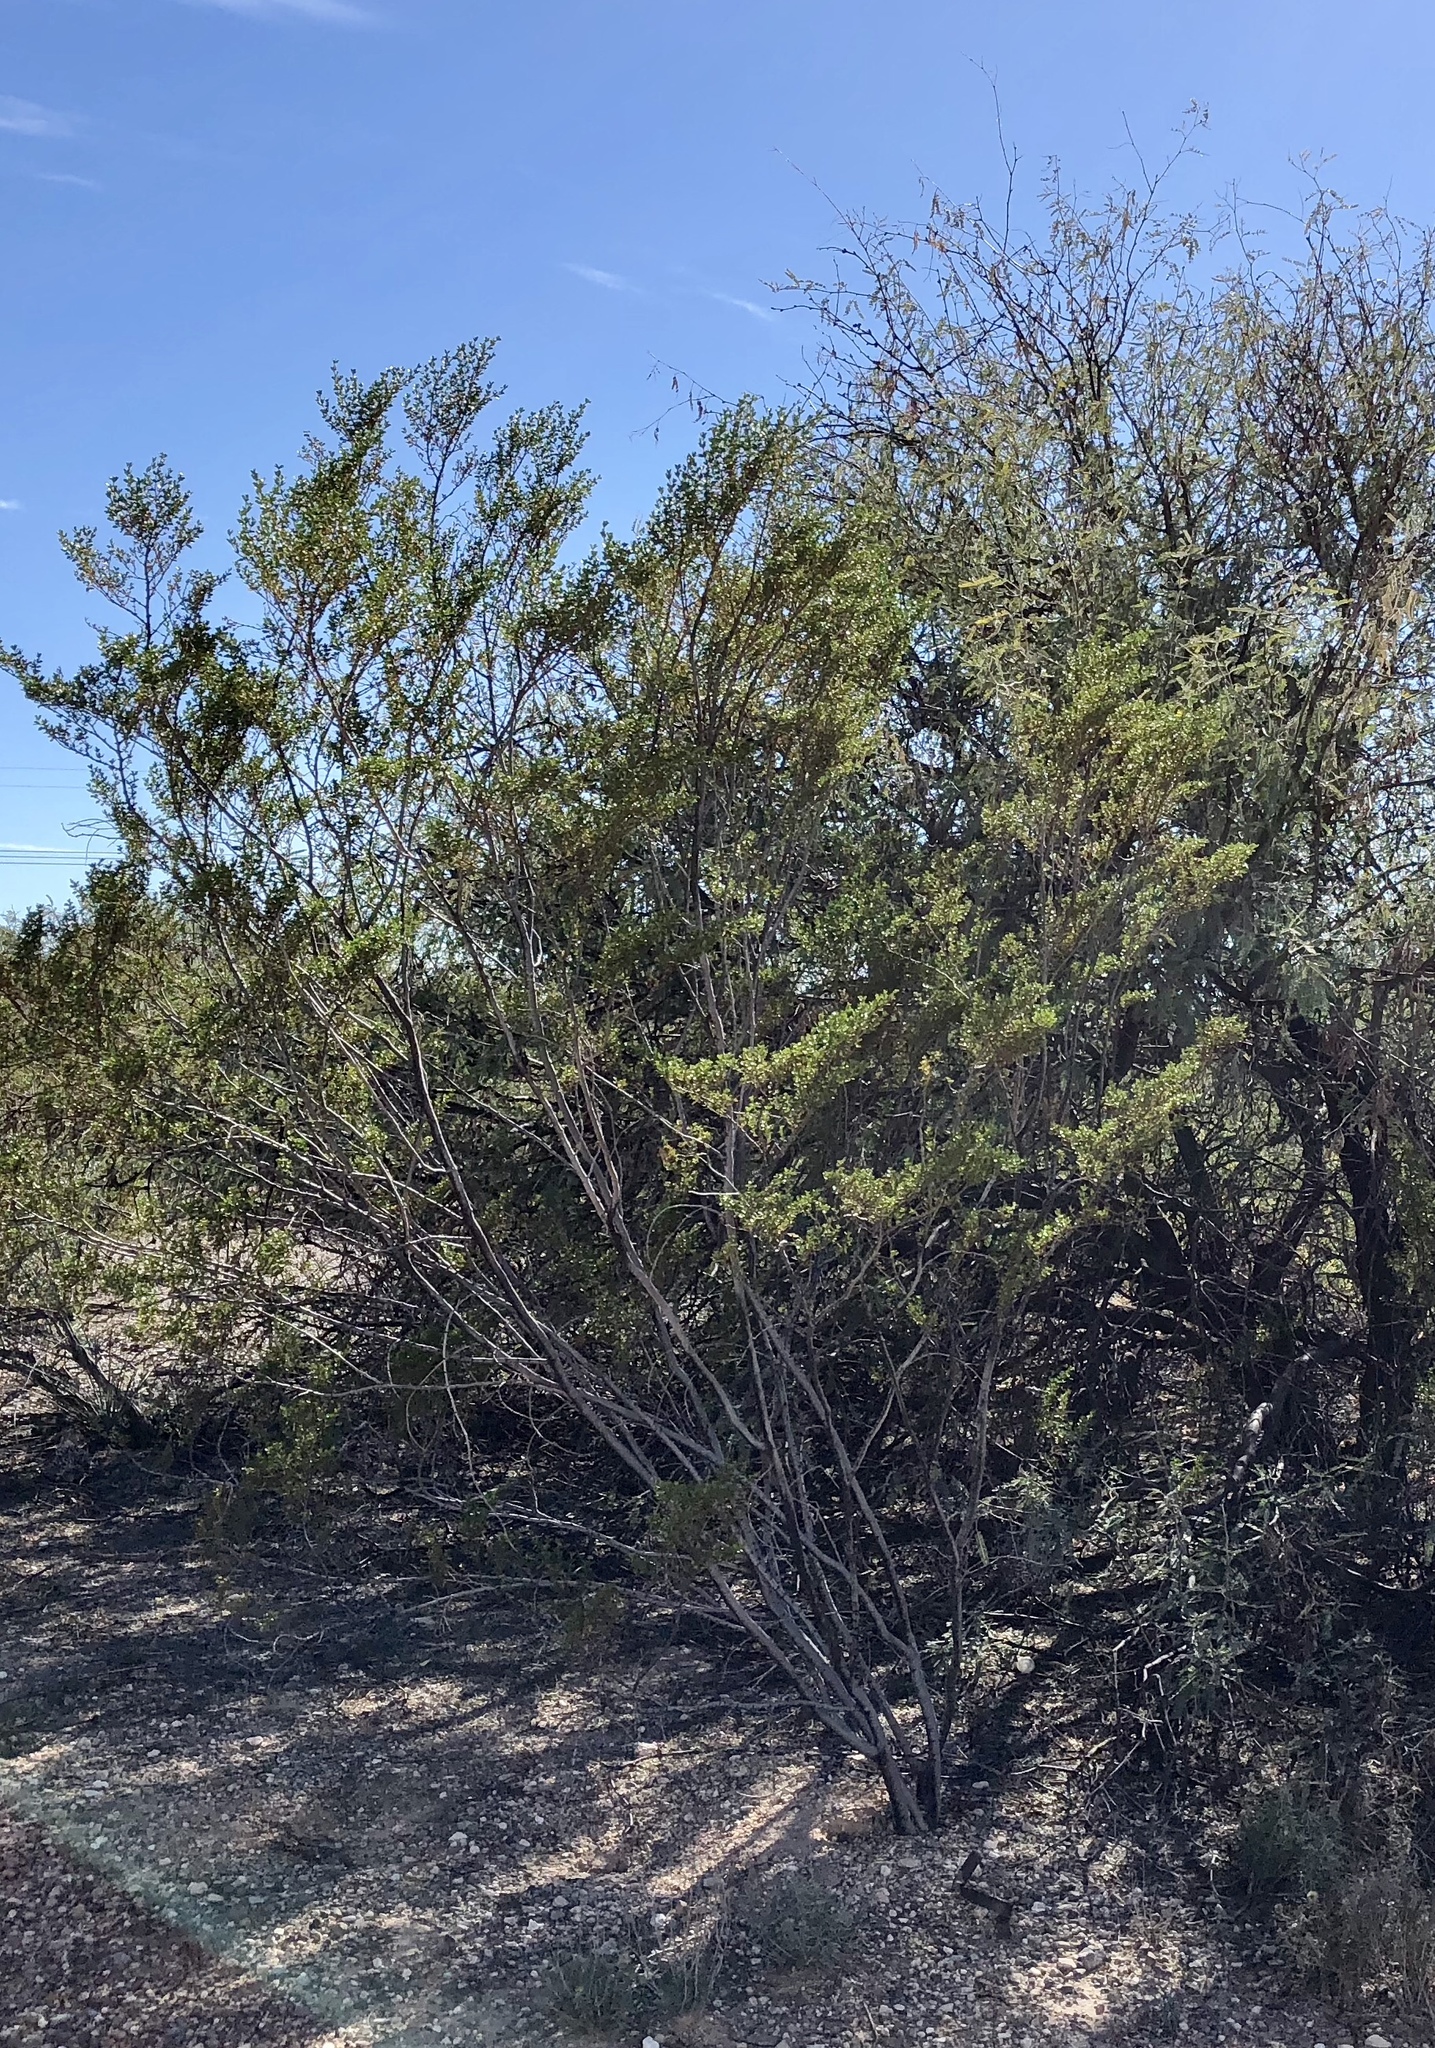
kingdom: Plantae
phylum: Tracheophyta
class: Magnoliopsida
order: Zygophyllales
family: Zygophyllaceae
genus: Larrea
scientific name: Larrea tridentata
